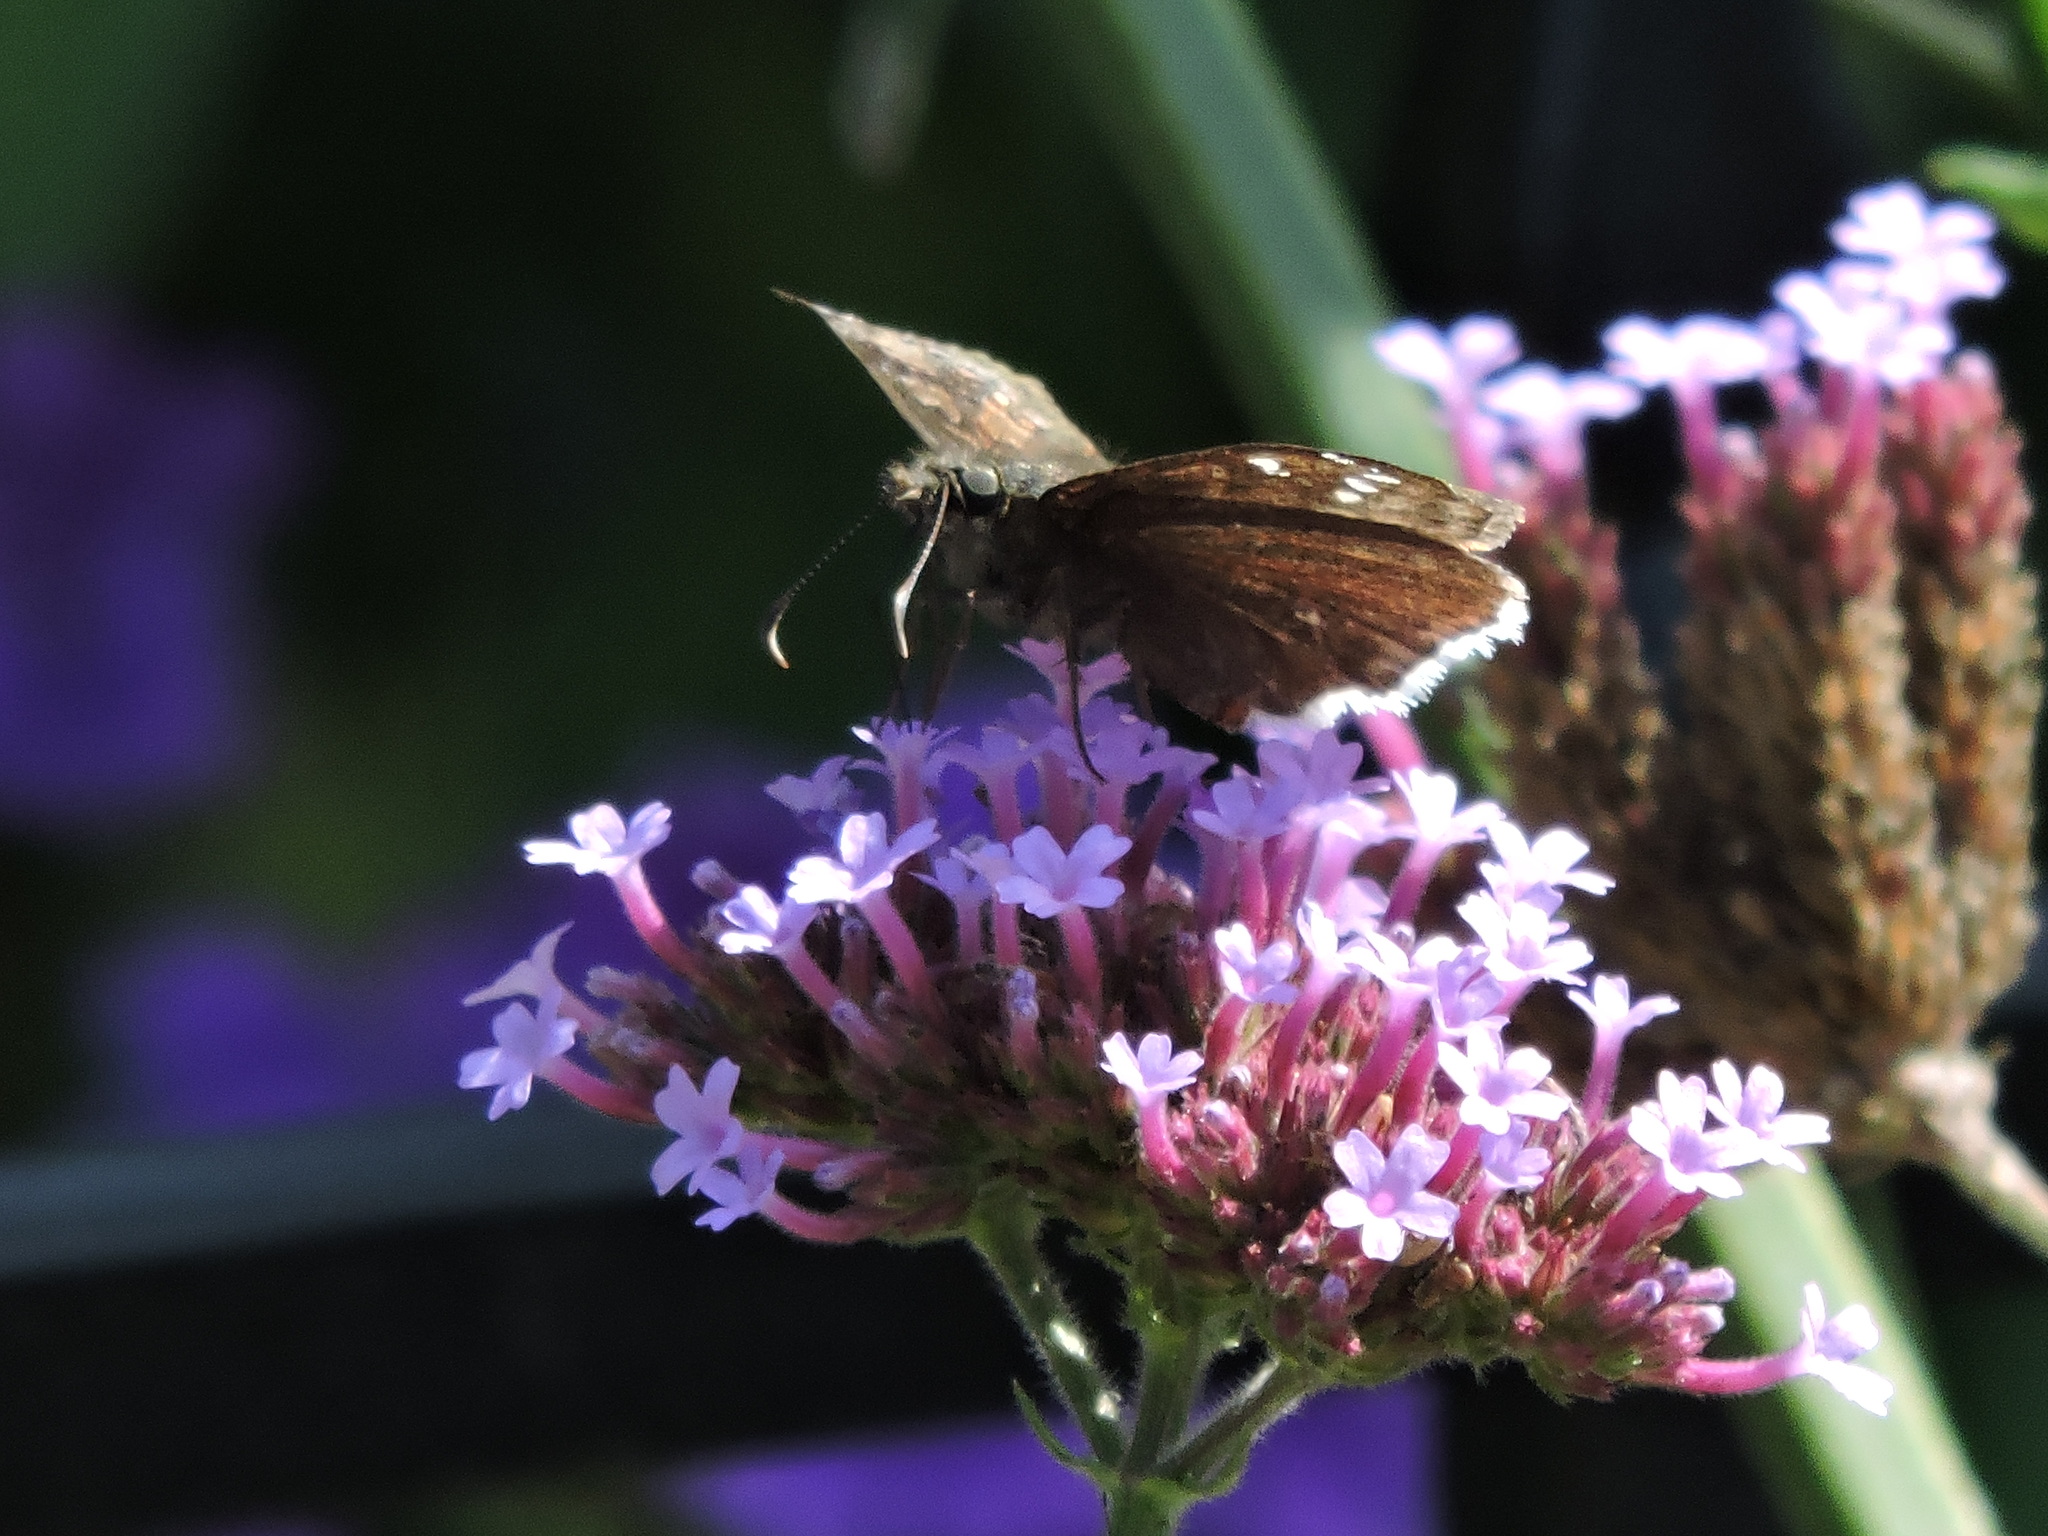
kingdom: Animalia
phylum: Arthropoda
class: Insecta
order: Lepidoptera
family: Hesperiidae
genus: Erynnis
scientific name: Erynnis tristis
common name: Mournful duskywing
